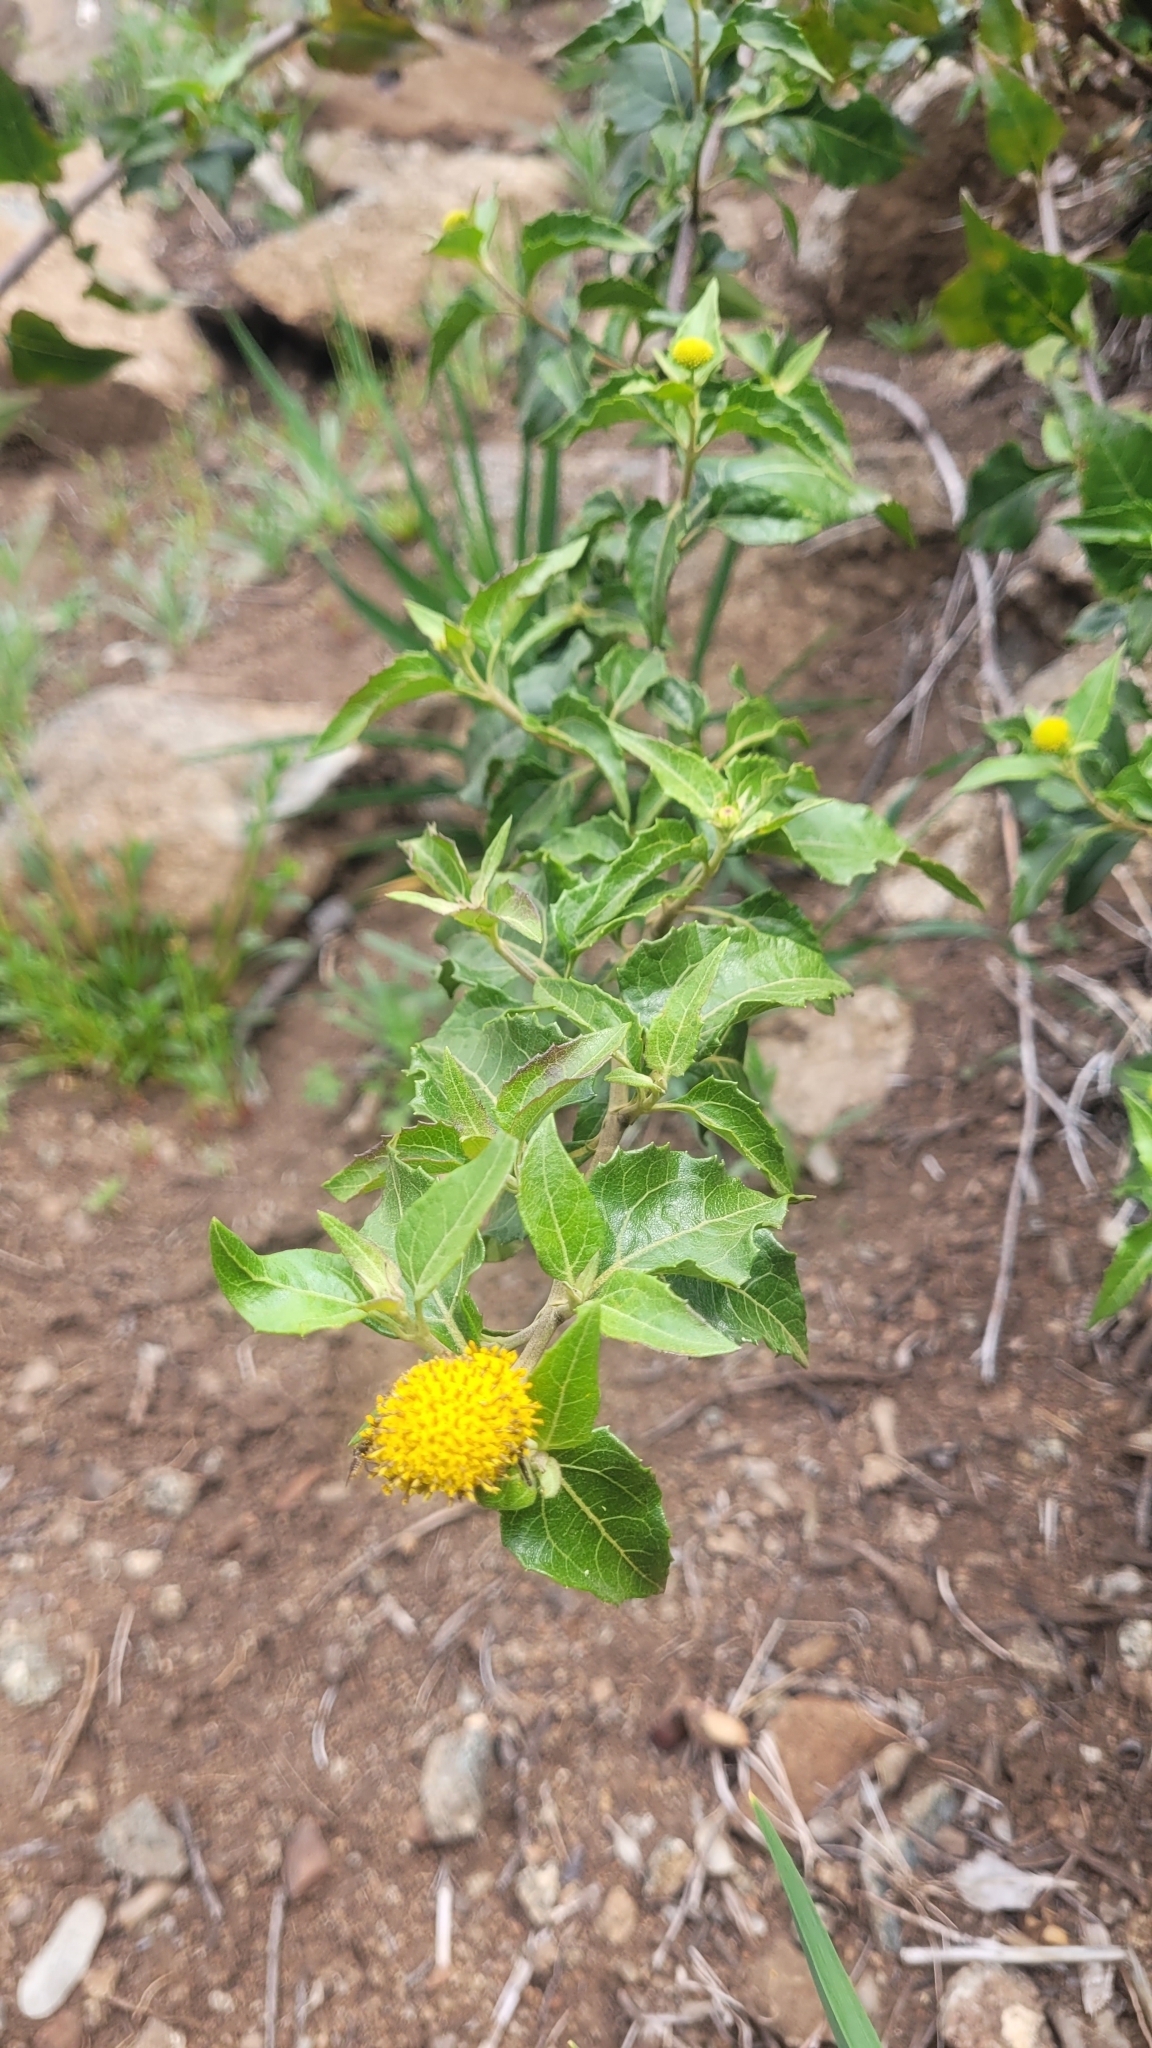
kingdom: Plantae
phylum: Tracheophyta
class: Magnoliopsida
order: Asterales
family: Asteraceae
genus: Podanthus
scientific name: Podanthus mitiqui
